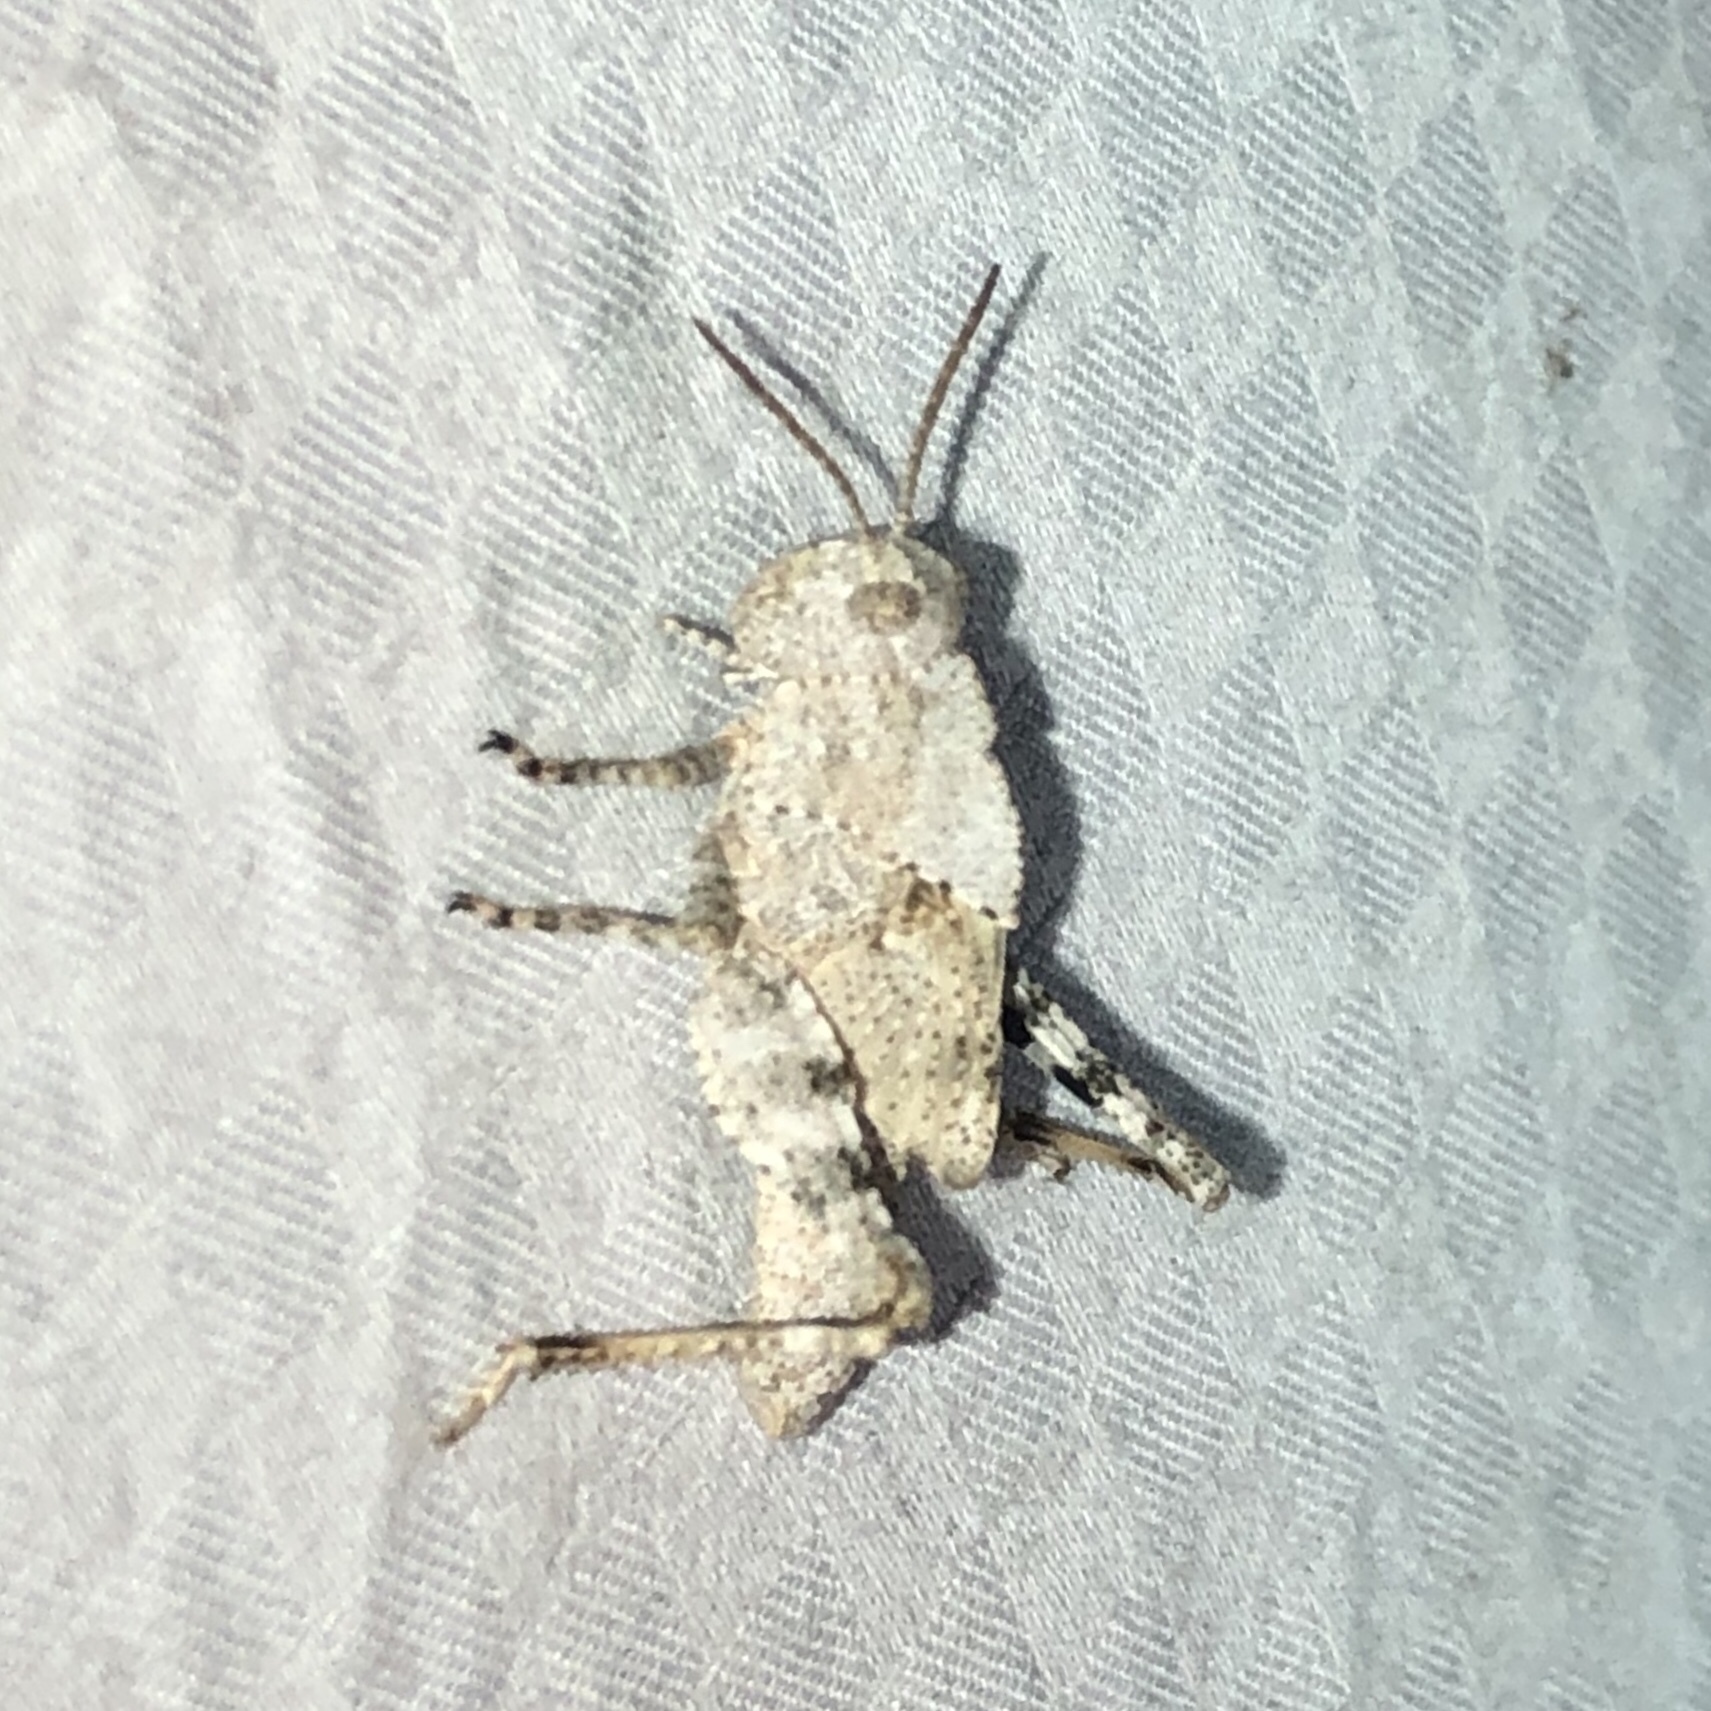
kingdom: Animalia
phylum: Arthropoda
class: Insecta
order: Orthoptera
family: Acrididae
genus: Dissosteira
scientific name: Dissosteira carolina
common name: Carolina grasshopper
